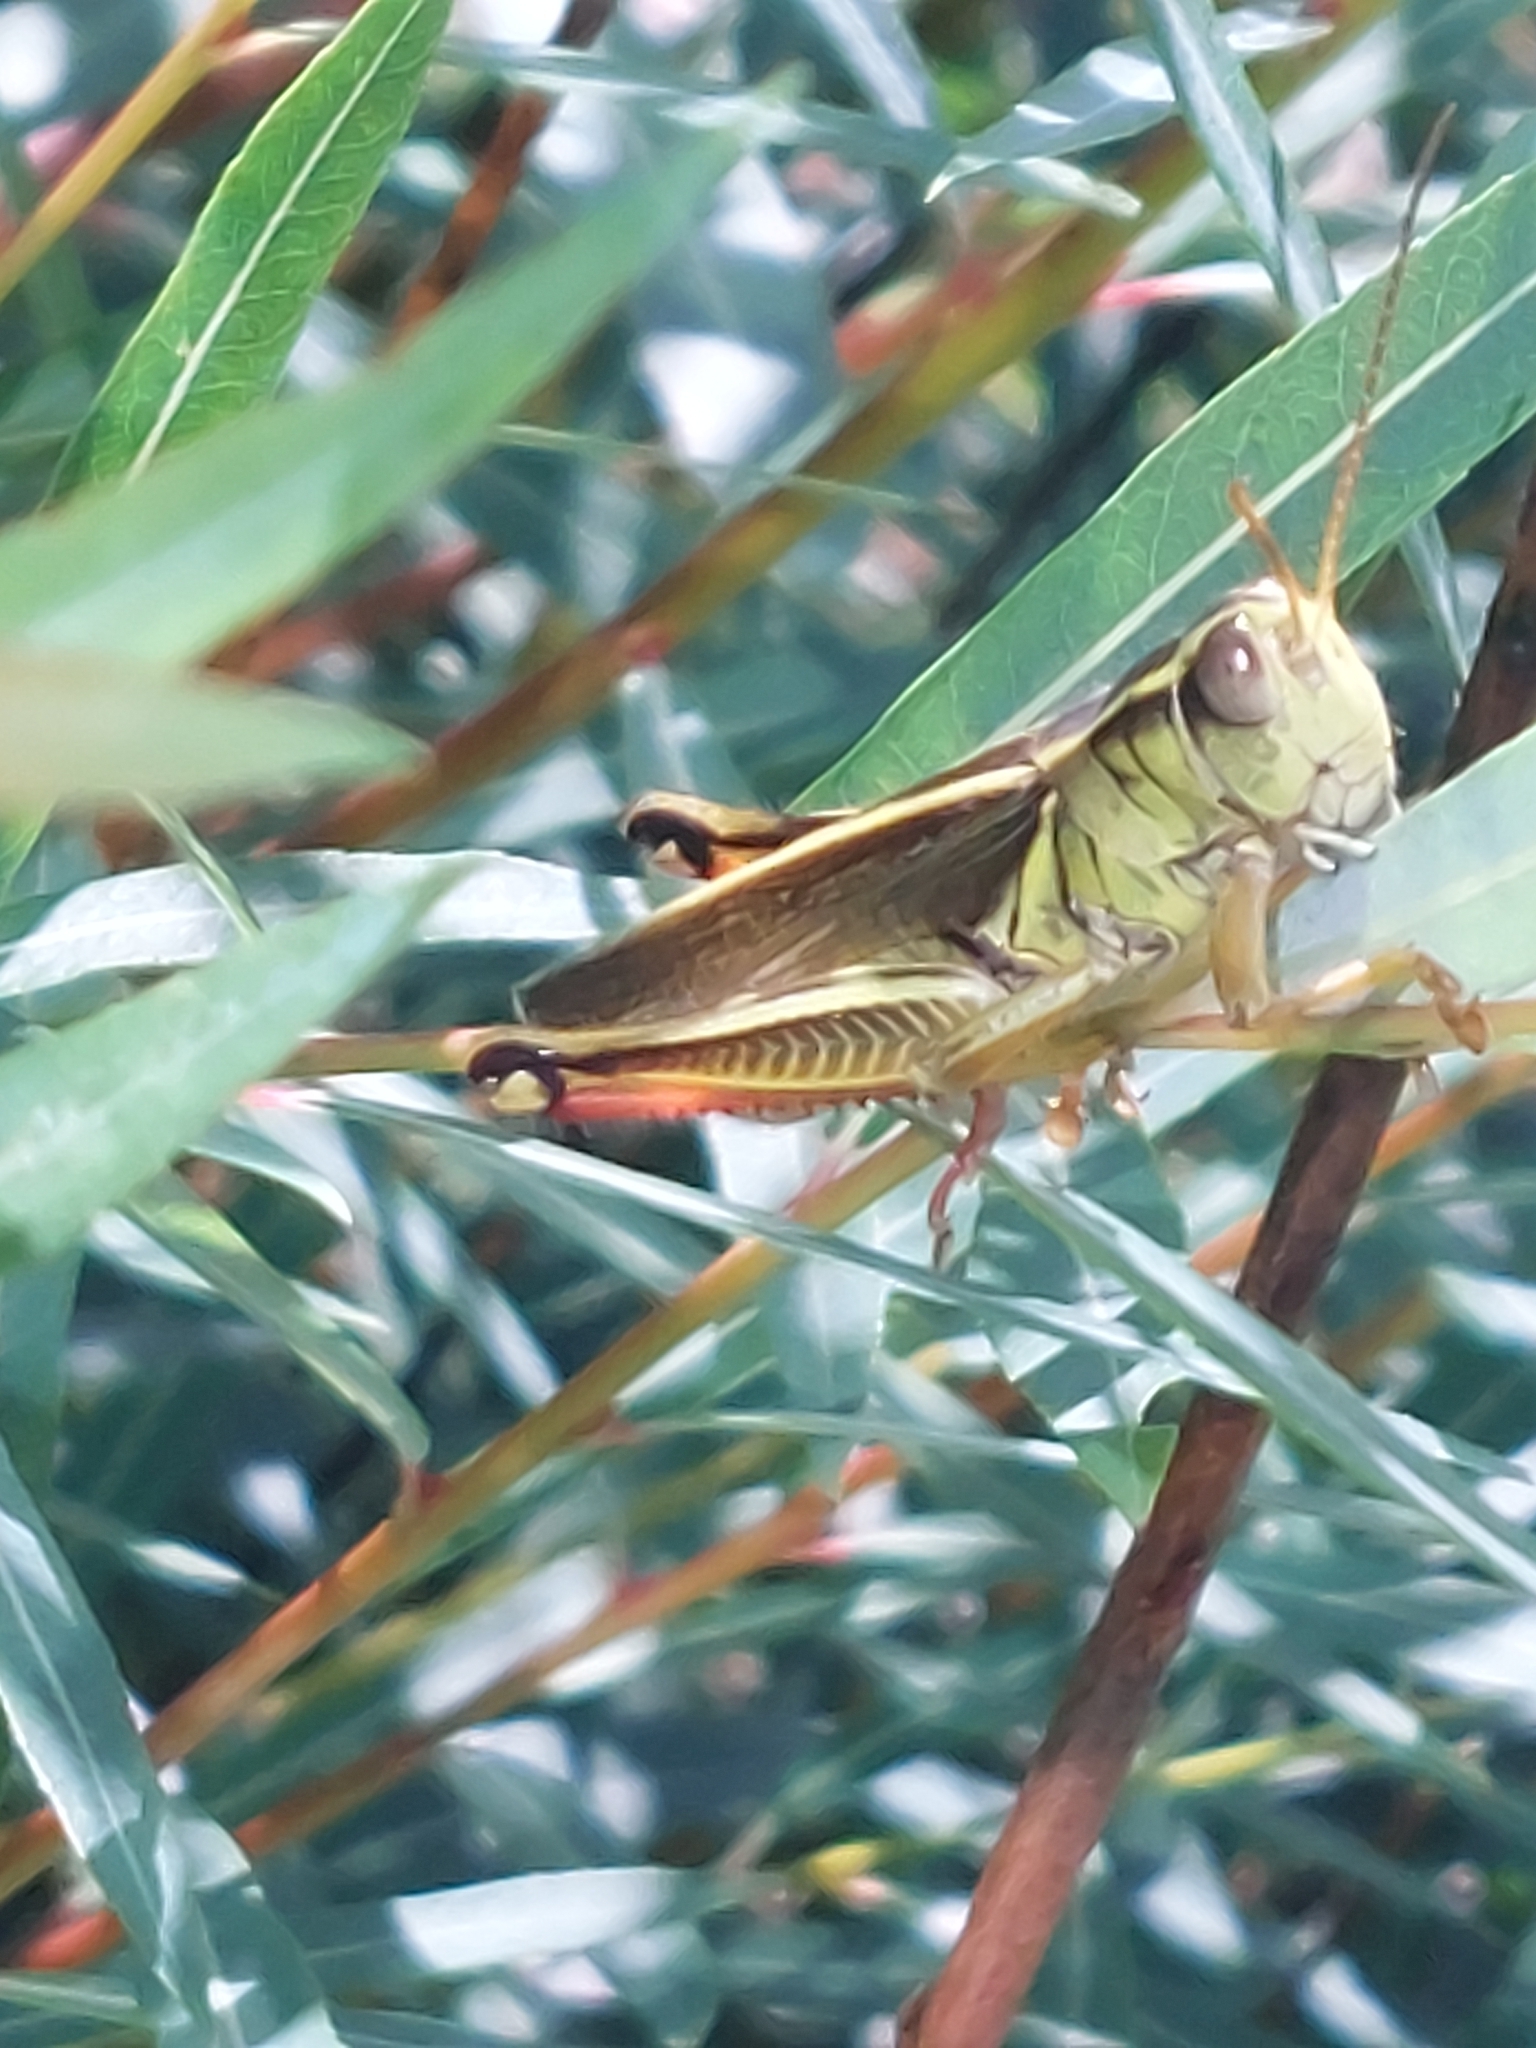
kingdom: Animalia
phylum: Arthropoda
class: Insecta
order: Orthoptera
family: Acrididae
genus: Melanoplus
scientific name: Melanoplus bivittatus
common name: Two-striped grasshopper
